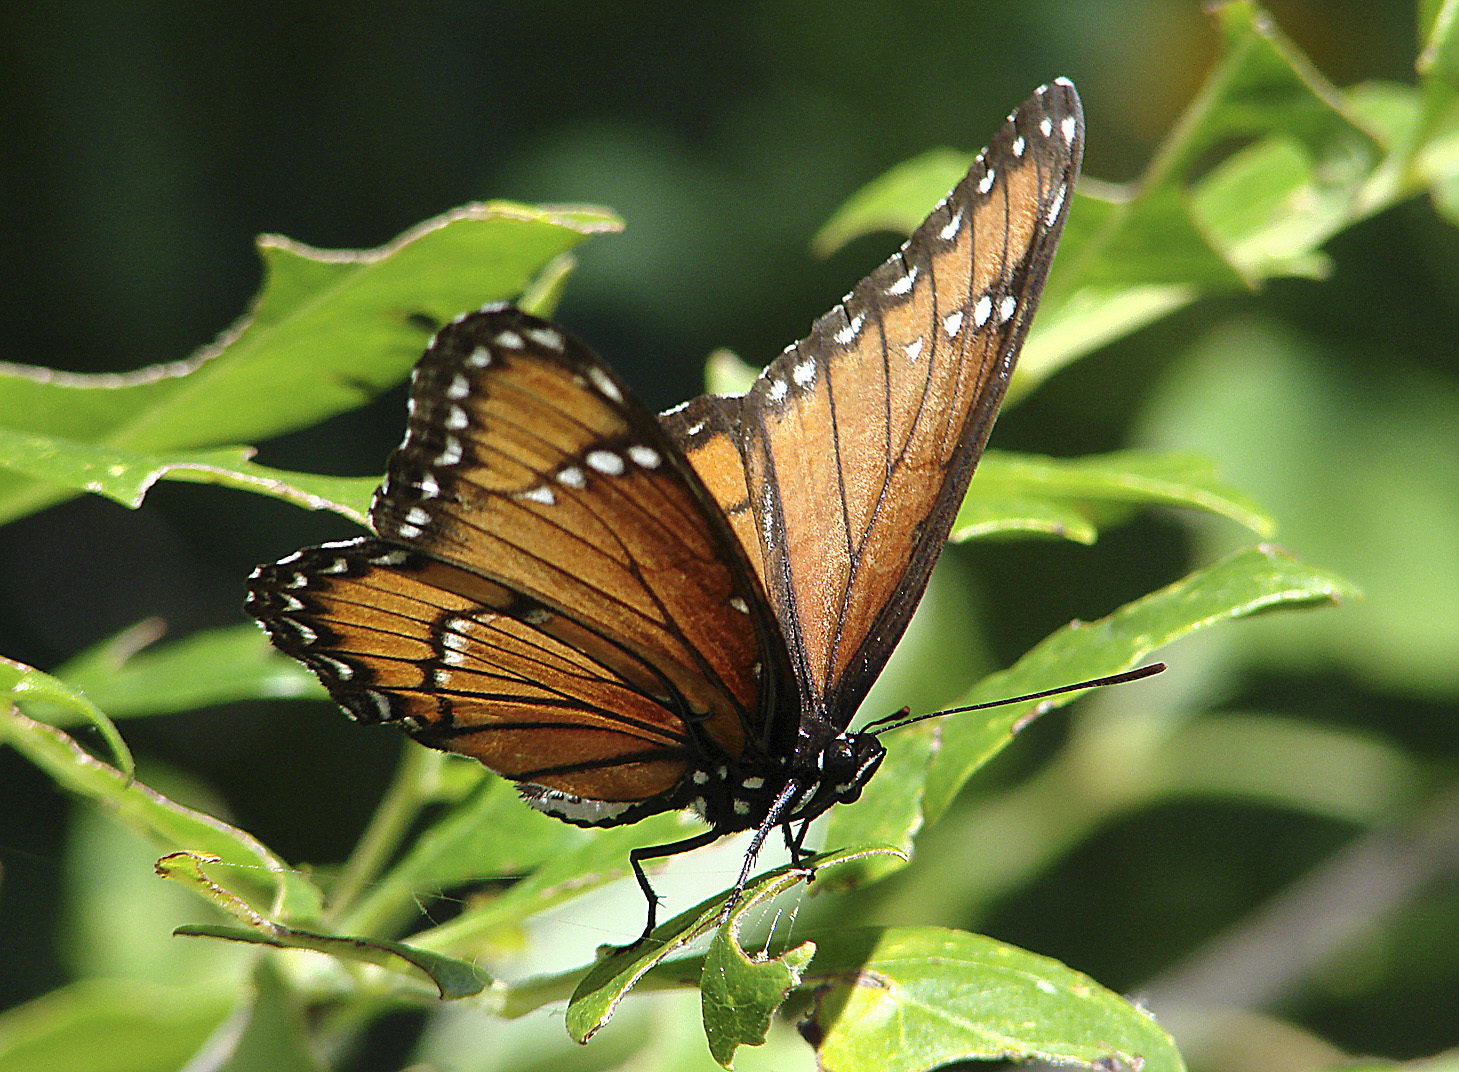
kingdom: Animalia
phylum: Arthropoda
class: Insecta
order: Lepidoptera
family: Nymphalidae
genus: Limenitis
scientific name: Limenitis archippus
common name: Viceroy
